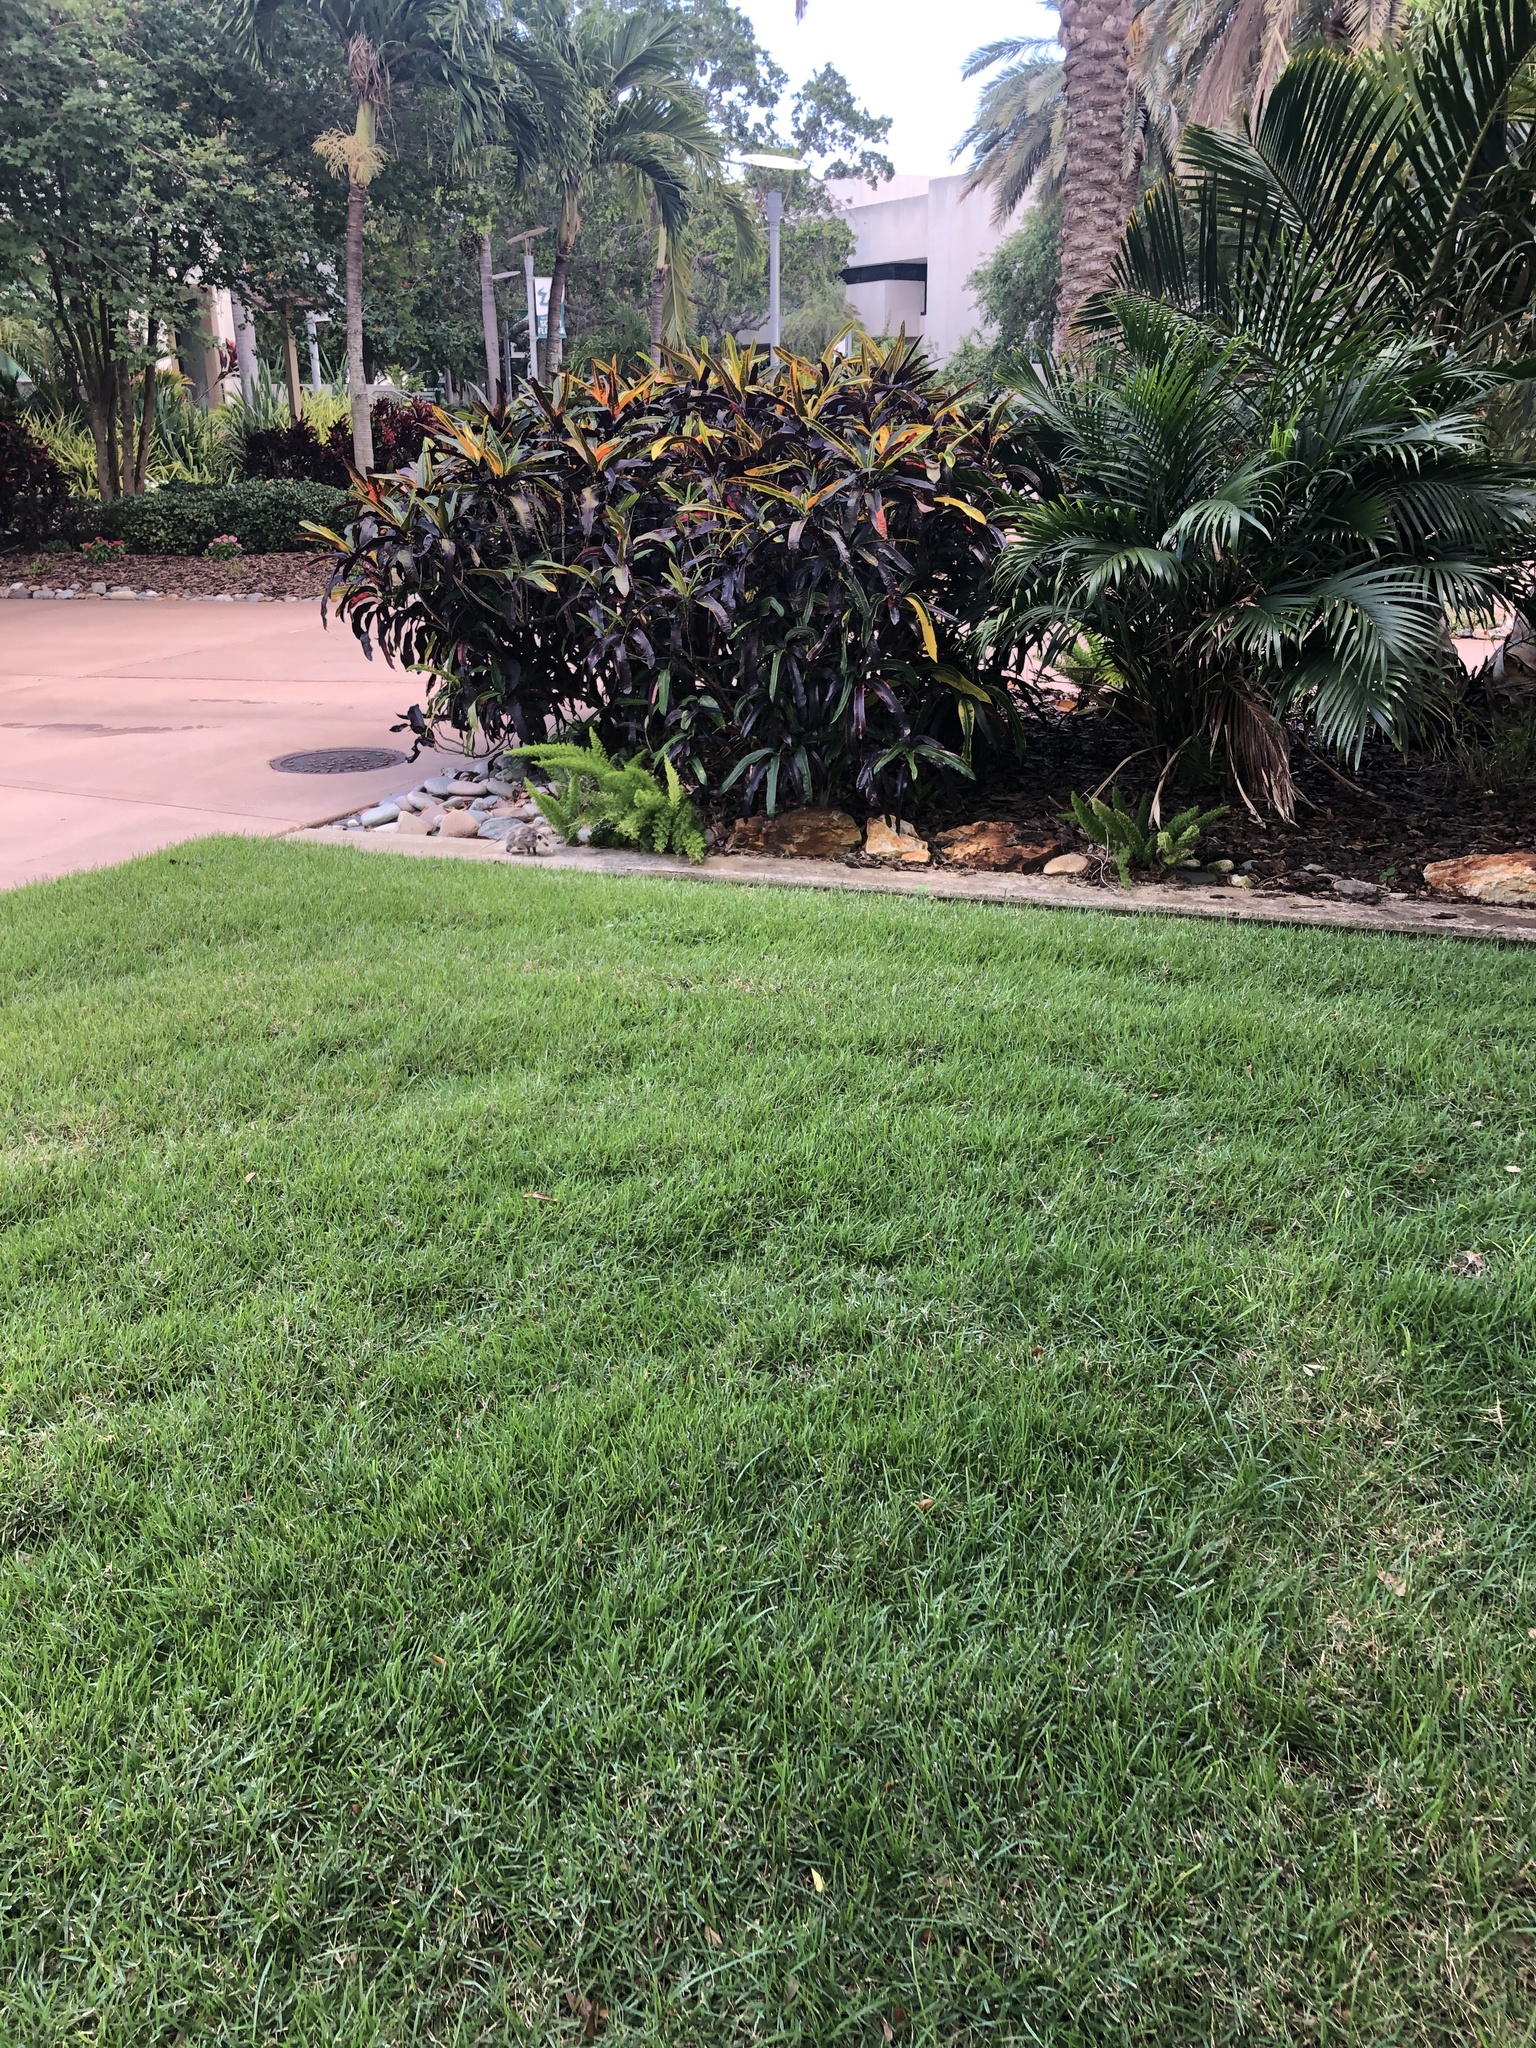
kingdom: Animalia
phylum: Chordata
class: Mammalia
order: Didelphimorphia
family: Didelphidae
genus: Didelphis
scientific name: Didelphis virginiana
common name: Virginia opossum
